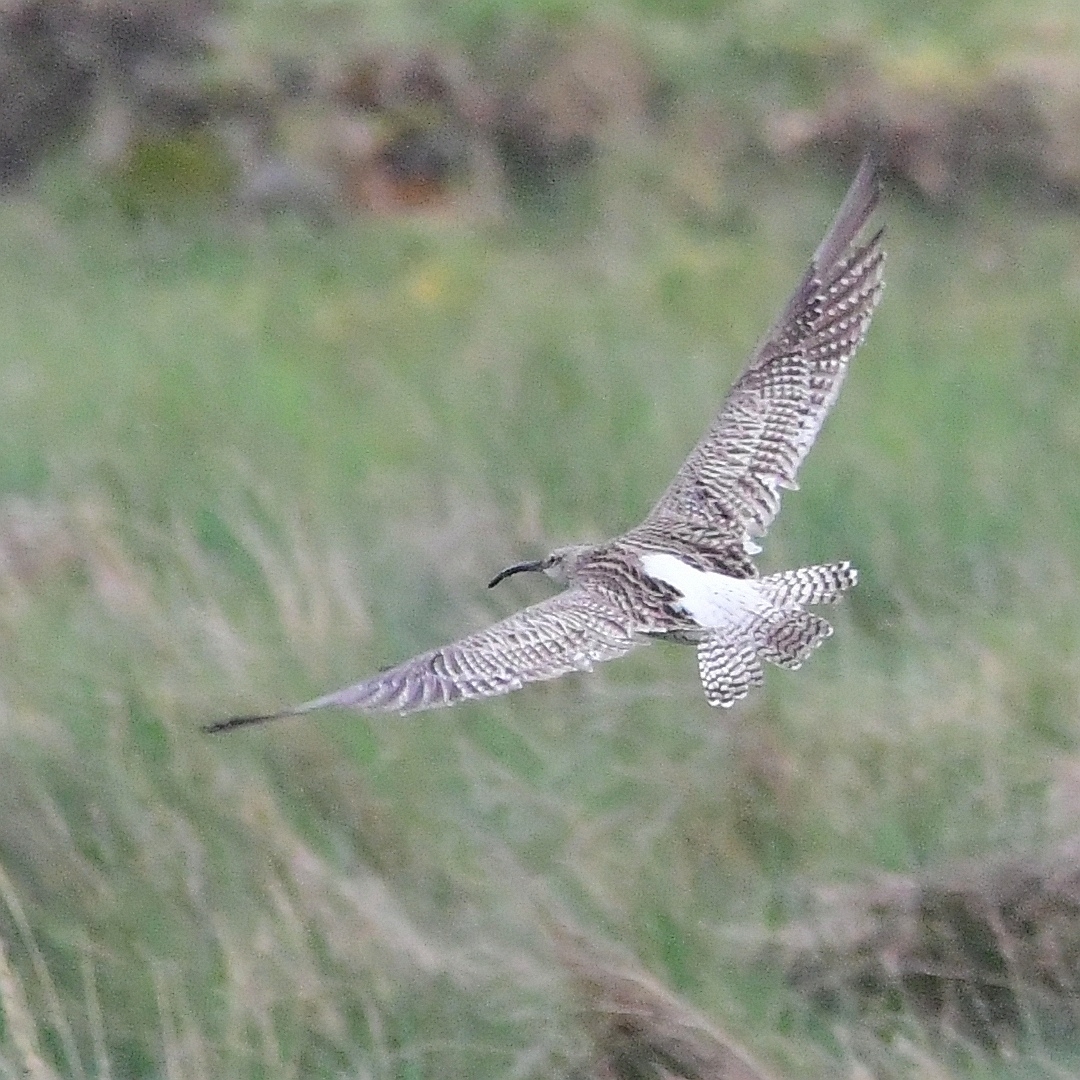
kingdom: Animalia
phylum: Chordata
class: Aves
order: Charadriiformes
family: Scolopacidae
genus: Numenius
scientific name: Numenius arquata
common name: Eurasian curlew
